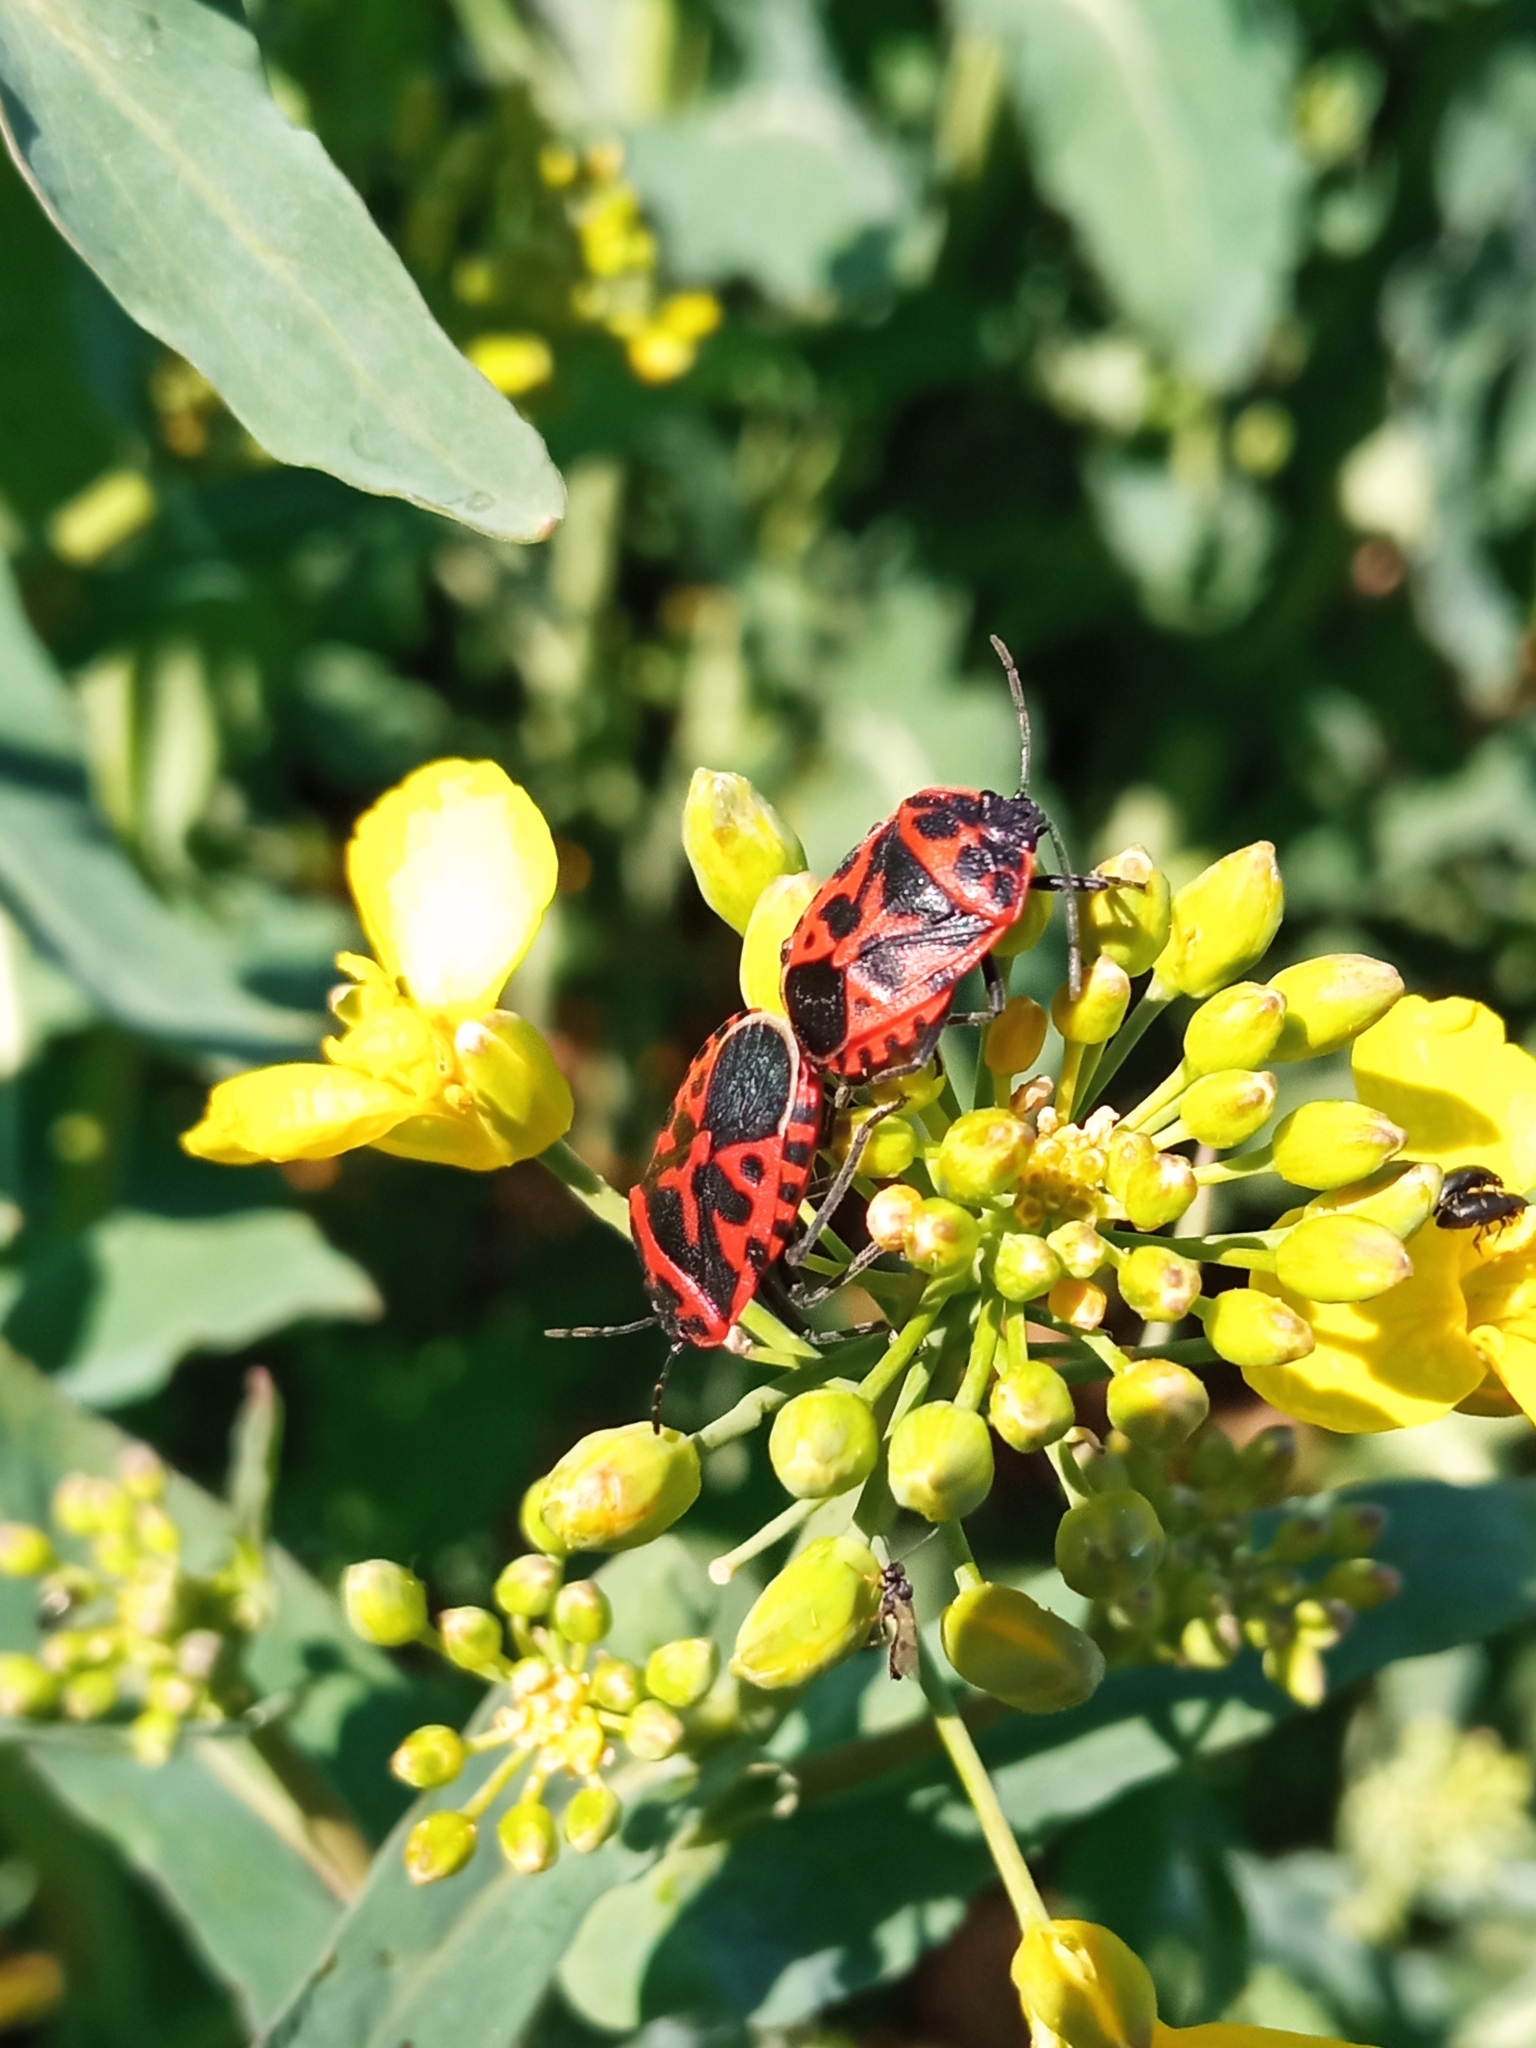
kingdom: Animalia
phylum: Arthropoda
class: Insecta
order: Hemiptera
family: Pentatomidae
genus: Eurydema
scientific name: Eurydema ventralis
